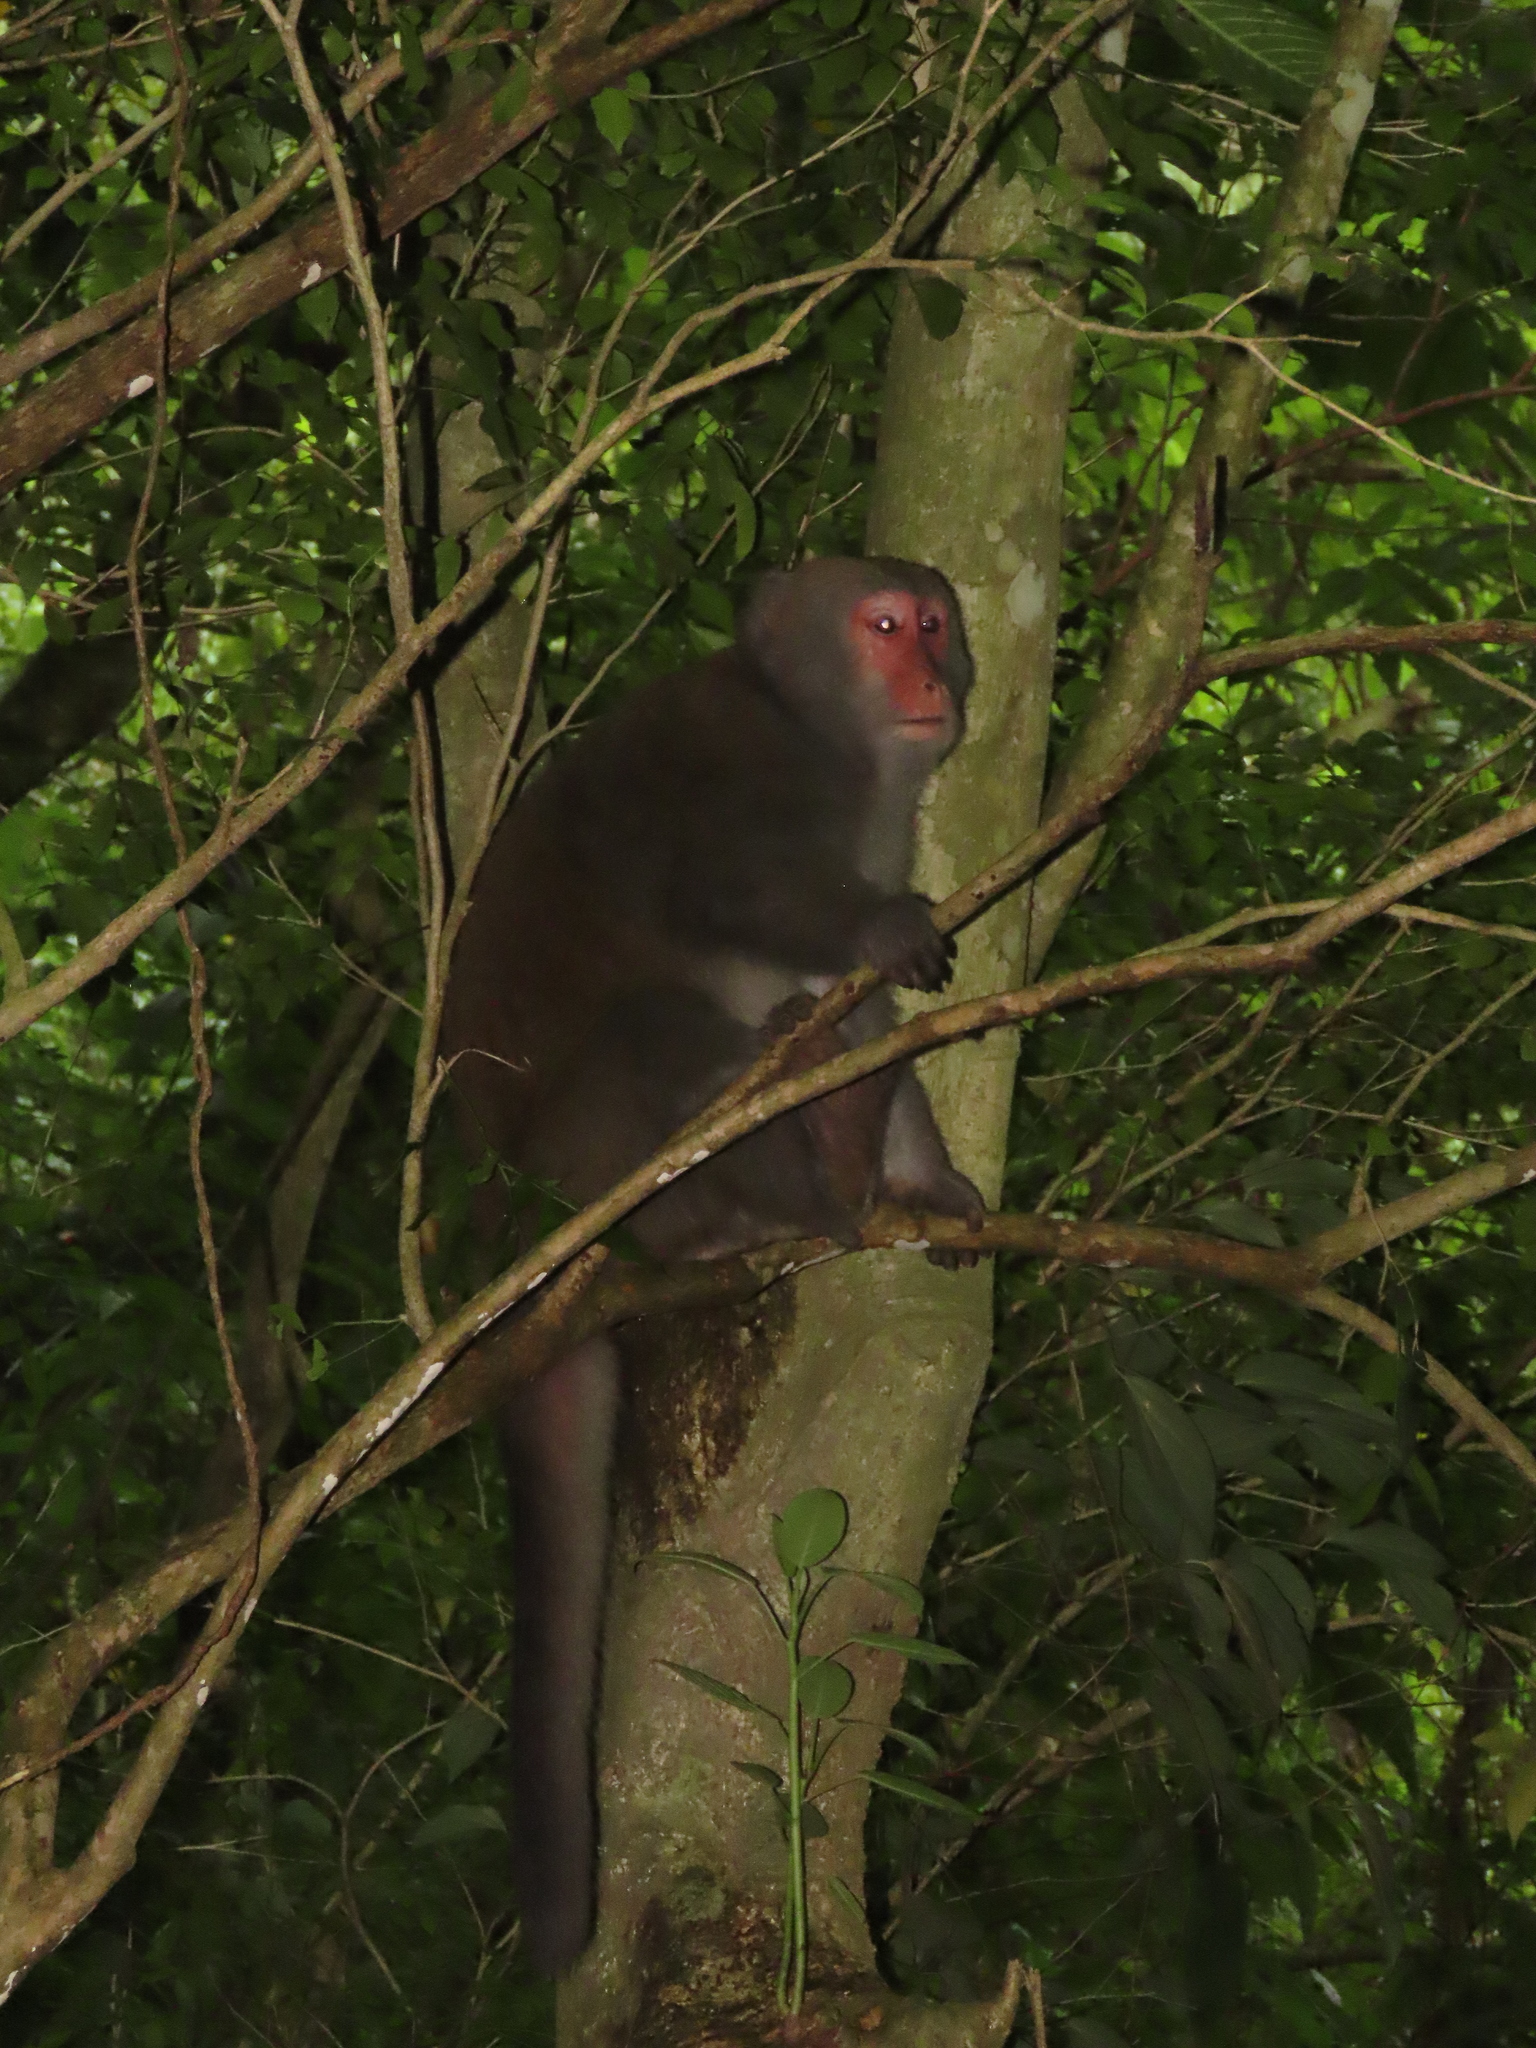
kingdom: Animalia
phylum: Chordata
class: Mammalia
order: Primates
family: Cercopithecidae
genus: Macaca
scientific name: Macaca cyclopis
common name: Formosan rock macaque
